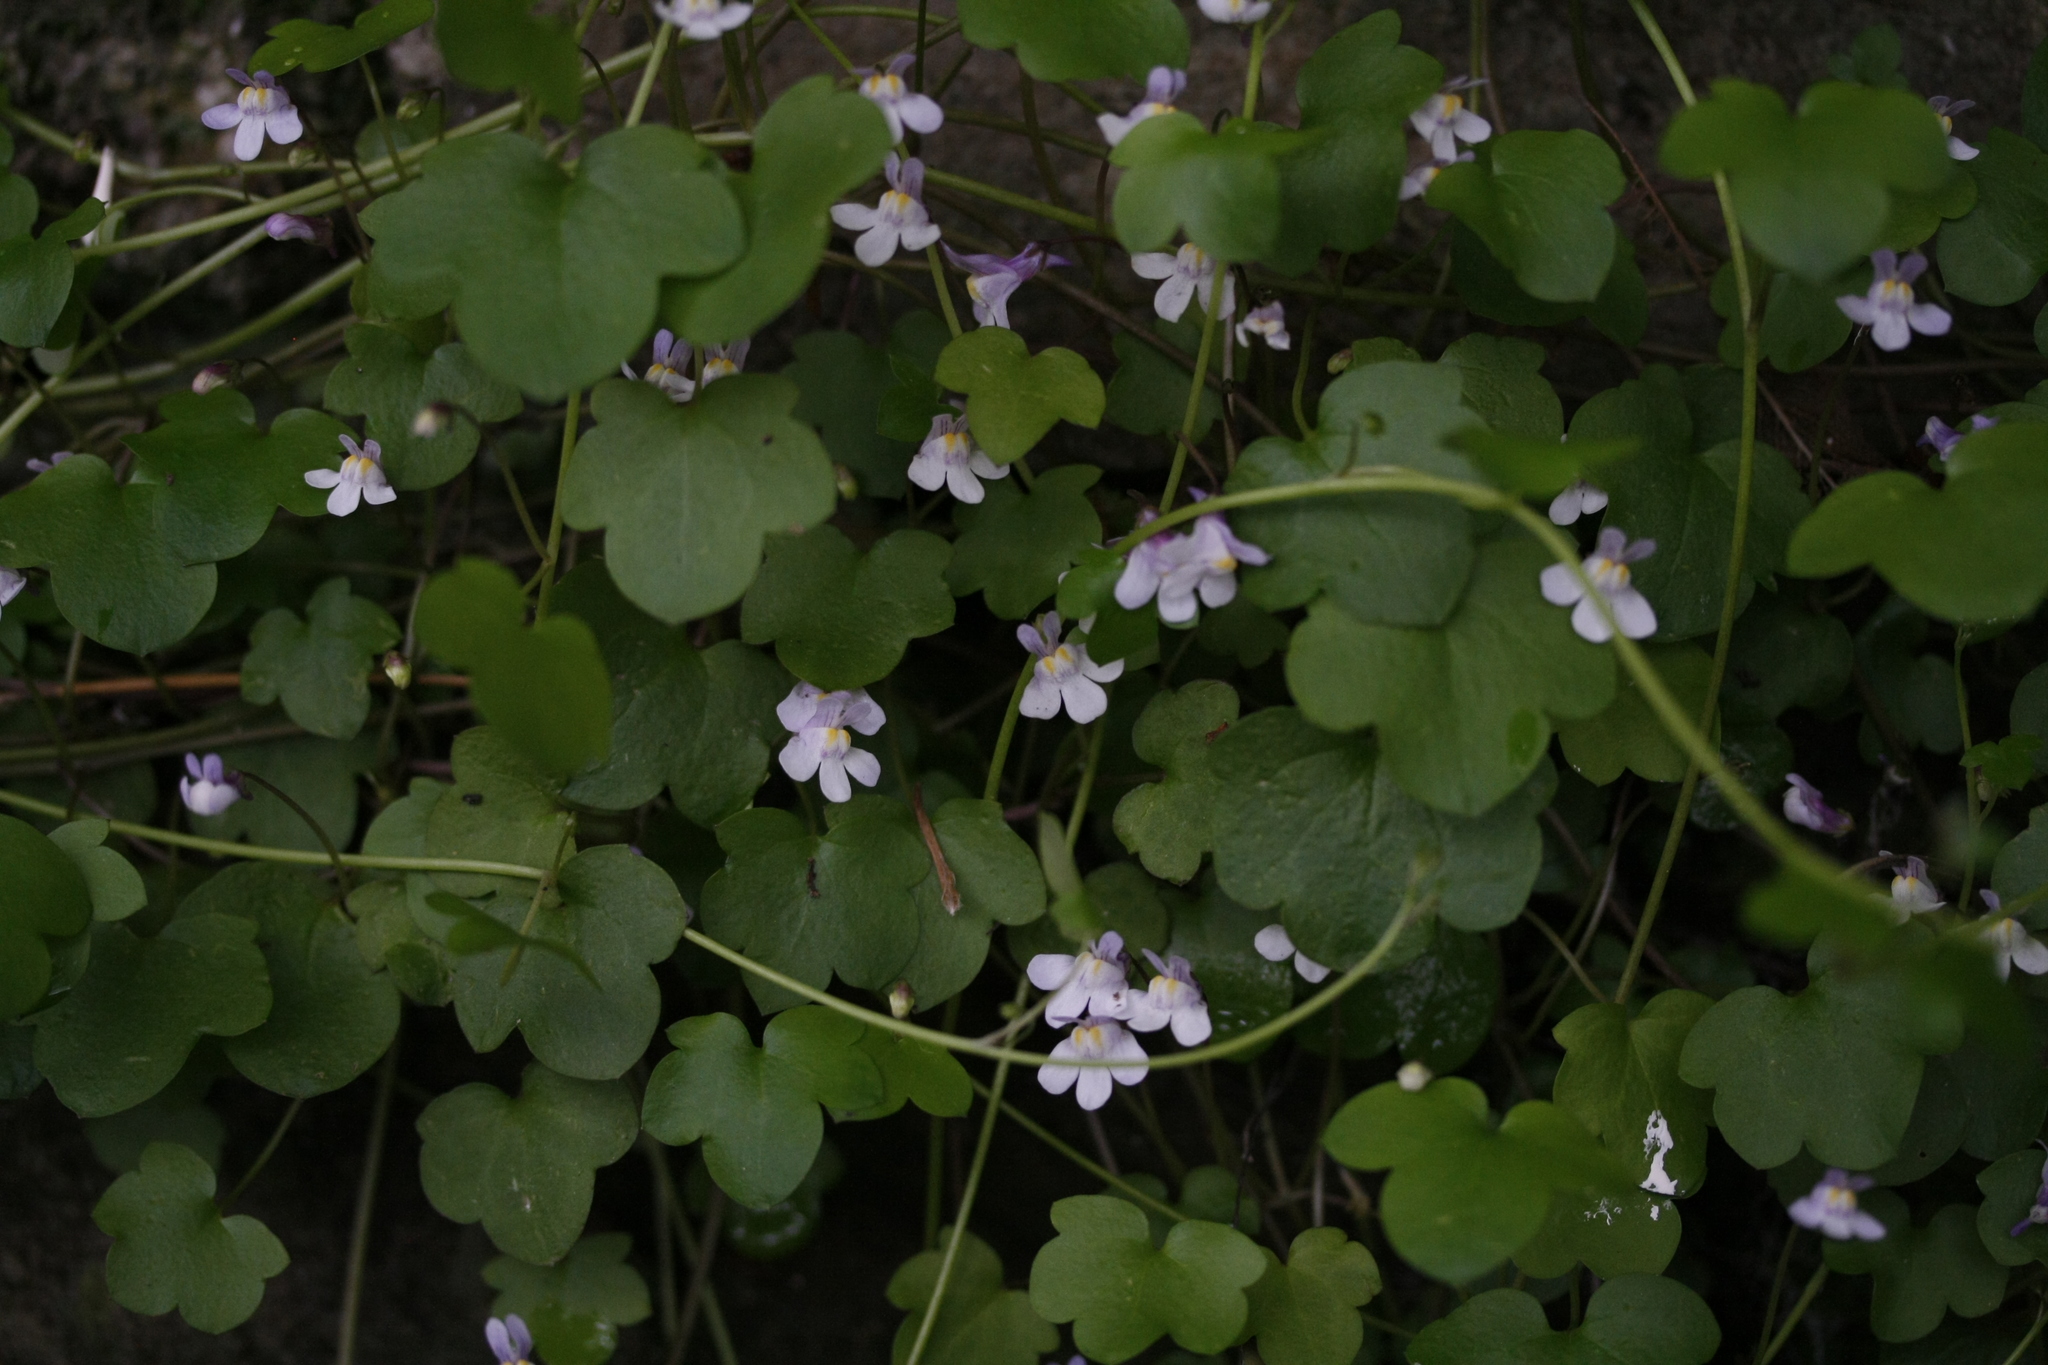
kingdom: Plantae
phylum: Tracheophyta
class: Magnoliopsida
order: Lamiales
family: Plantaginaceae
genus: Cymbalaria
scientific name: Cymbalaria muralis
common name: Ivy-leaved toadflax
